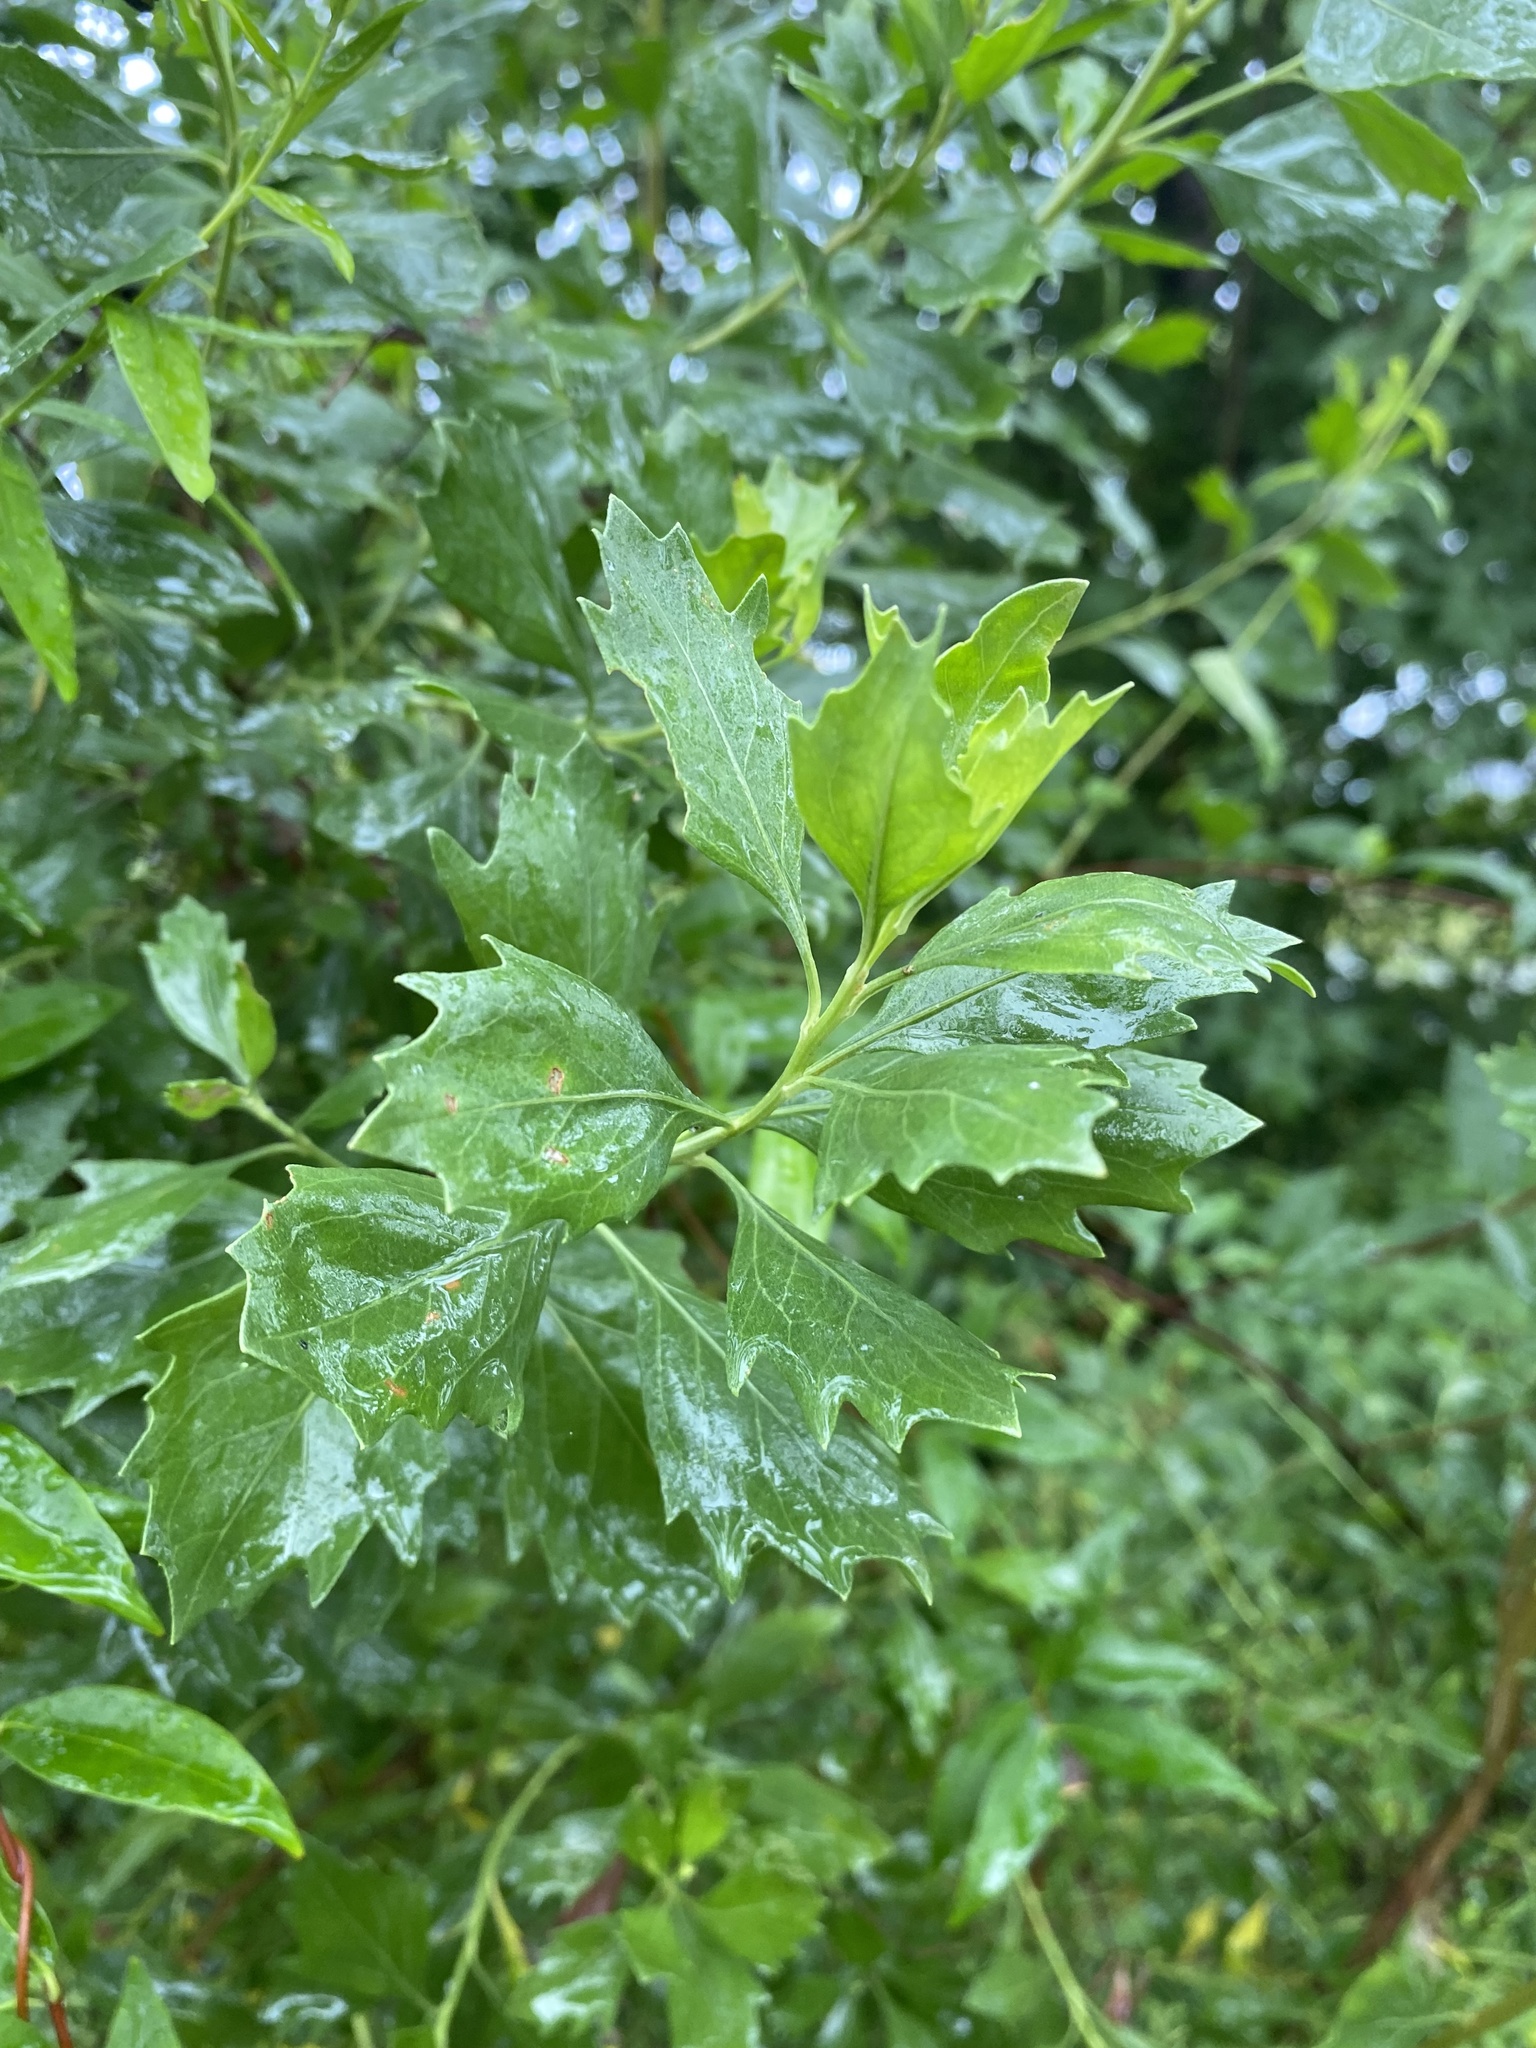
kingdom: Plantae
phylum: Tracheophyta
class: Magnoliopsida
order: Asterales
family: Asteraceae
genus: Baccharis
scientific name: Baccharis halimifolia
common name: Eastern baccharis
